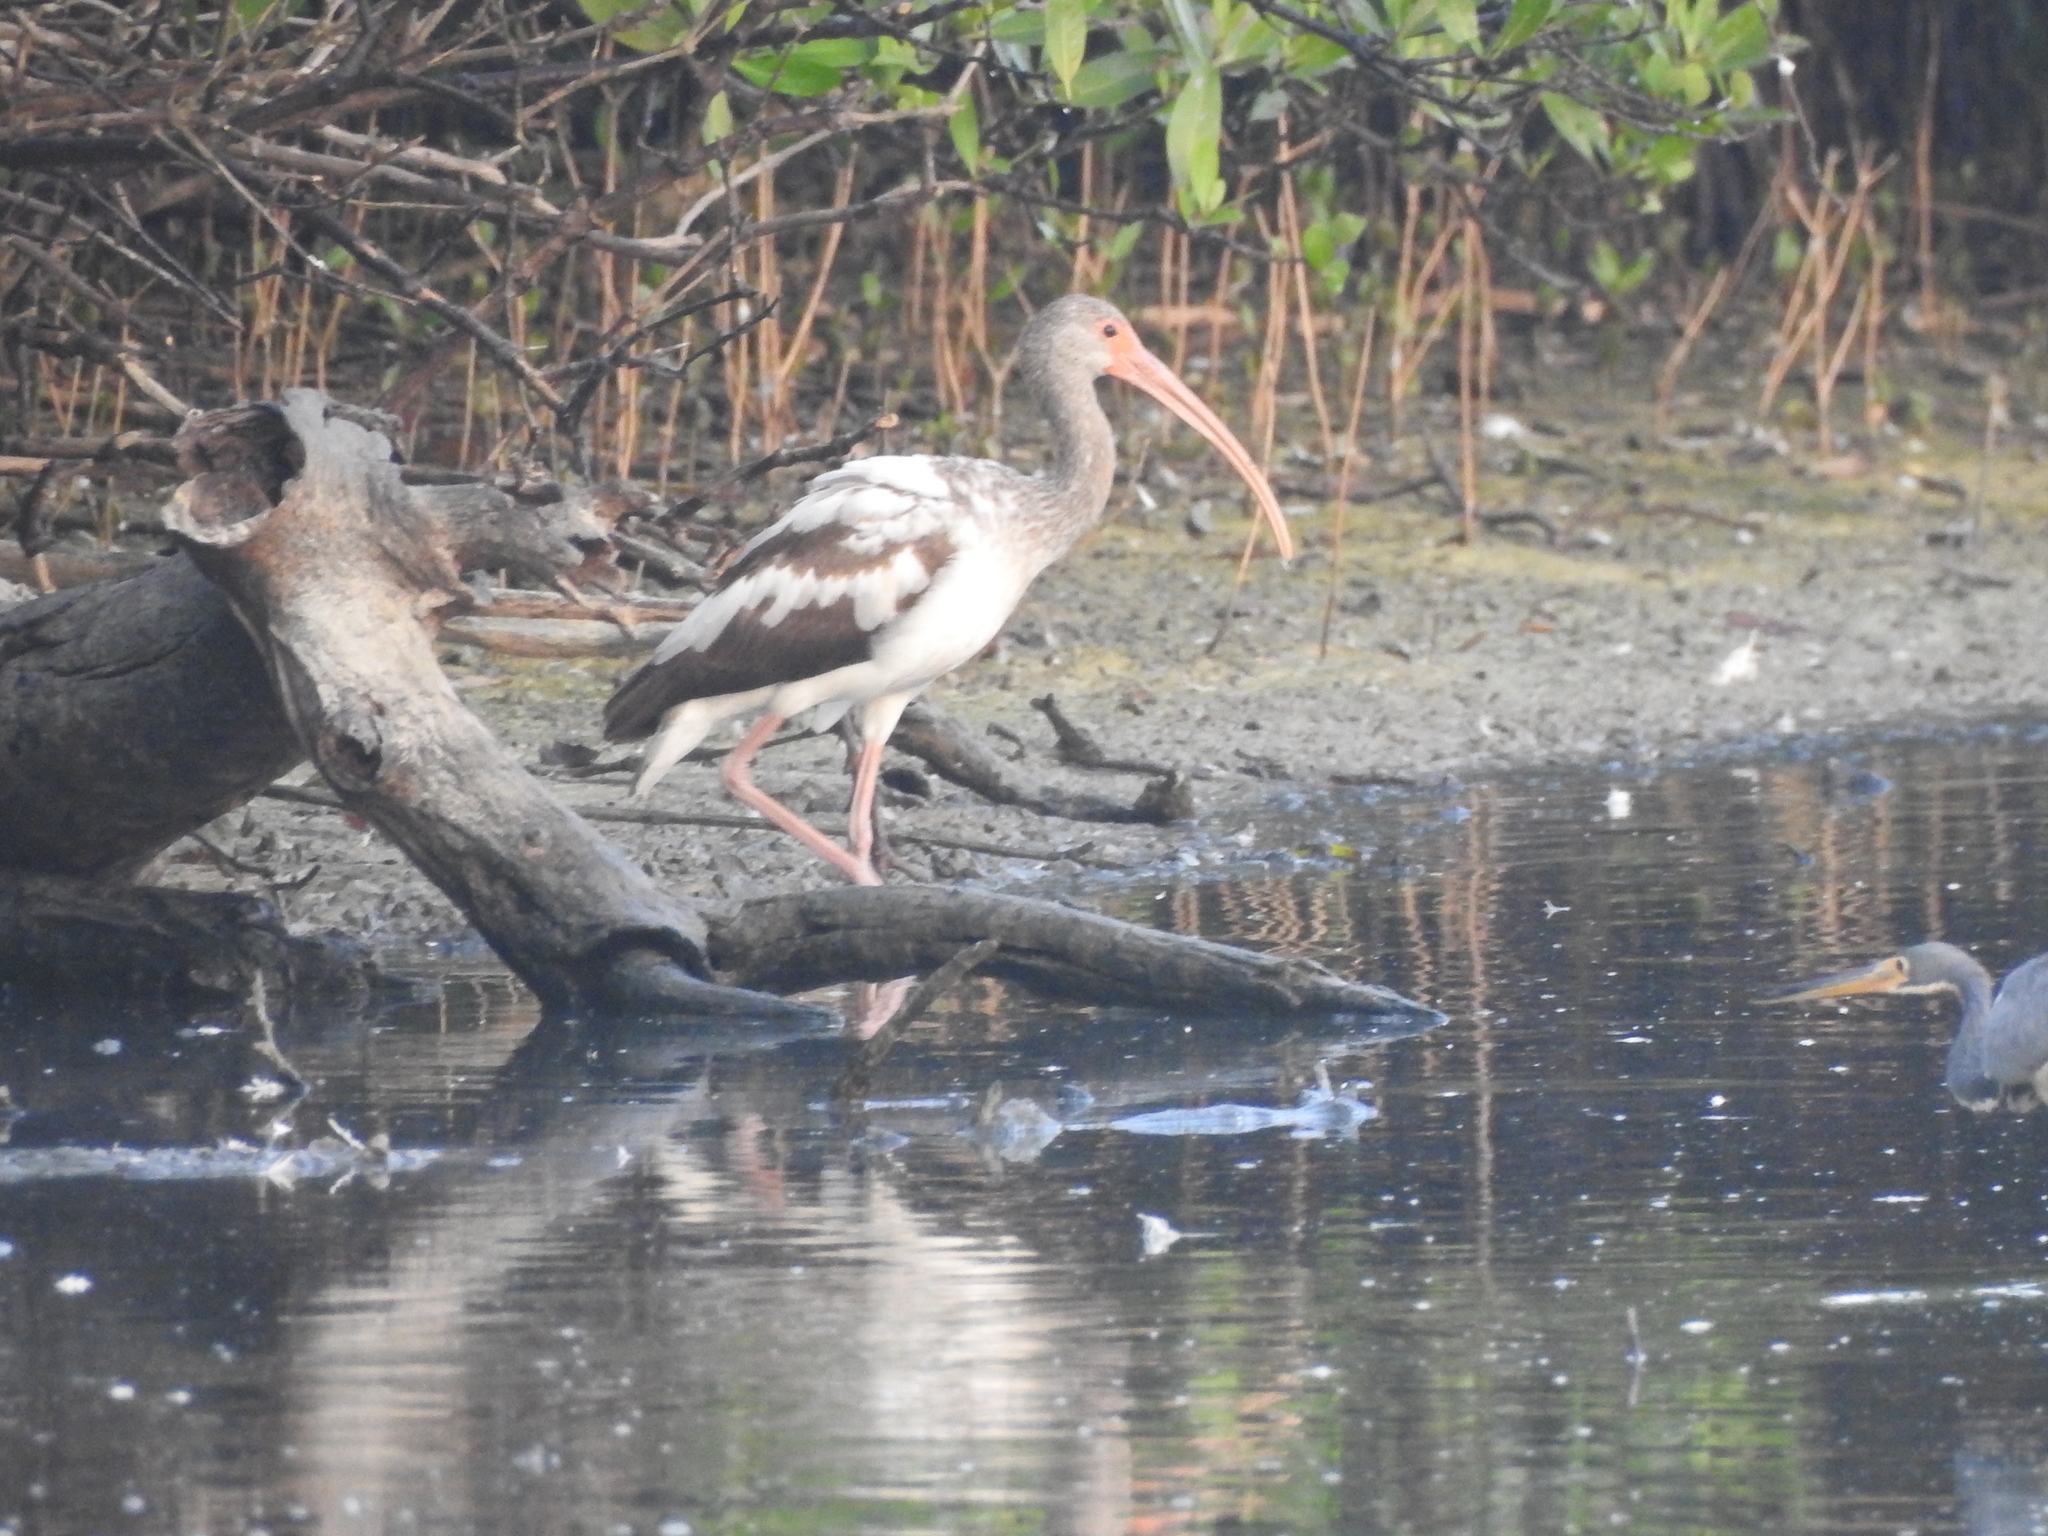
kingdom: Animalia
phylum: Chordata
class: Aves
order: Pelecaniformes
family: Threskiornithidae
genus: Eudocimus
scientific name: Eudocimus albus
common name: White ibis
